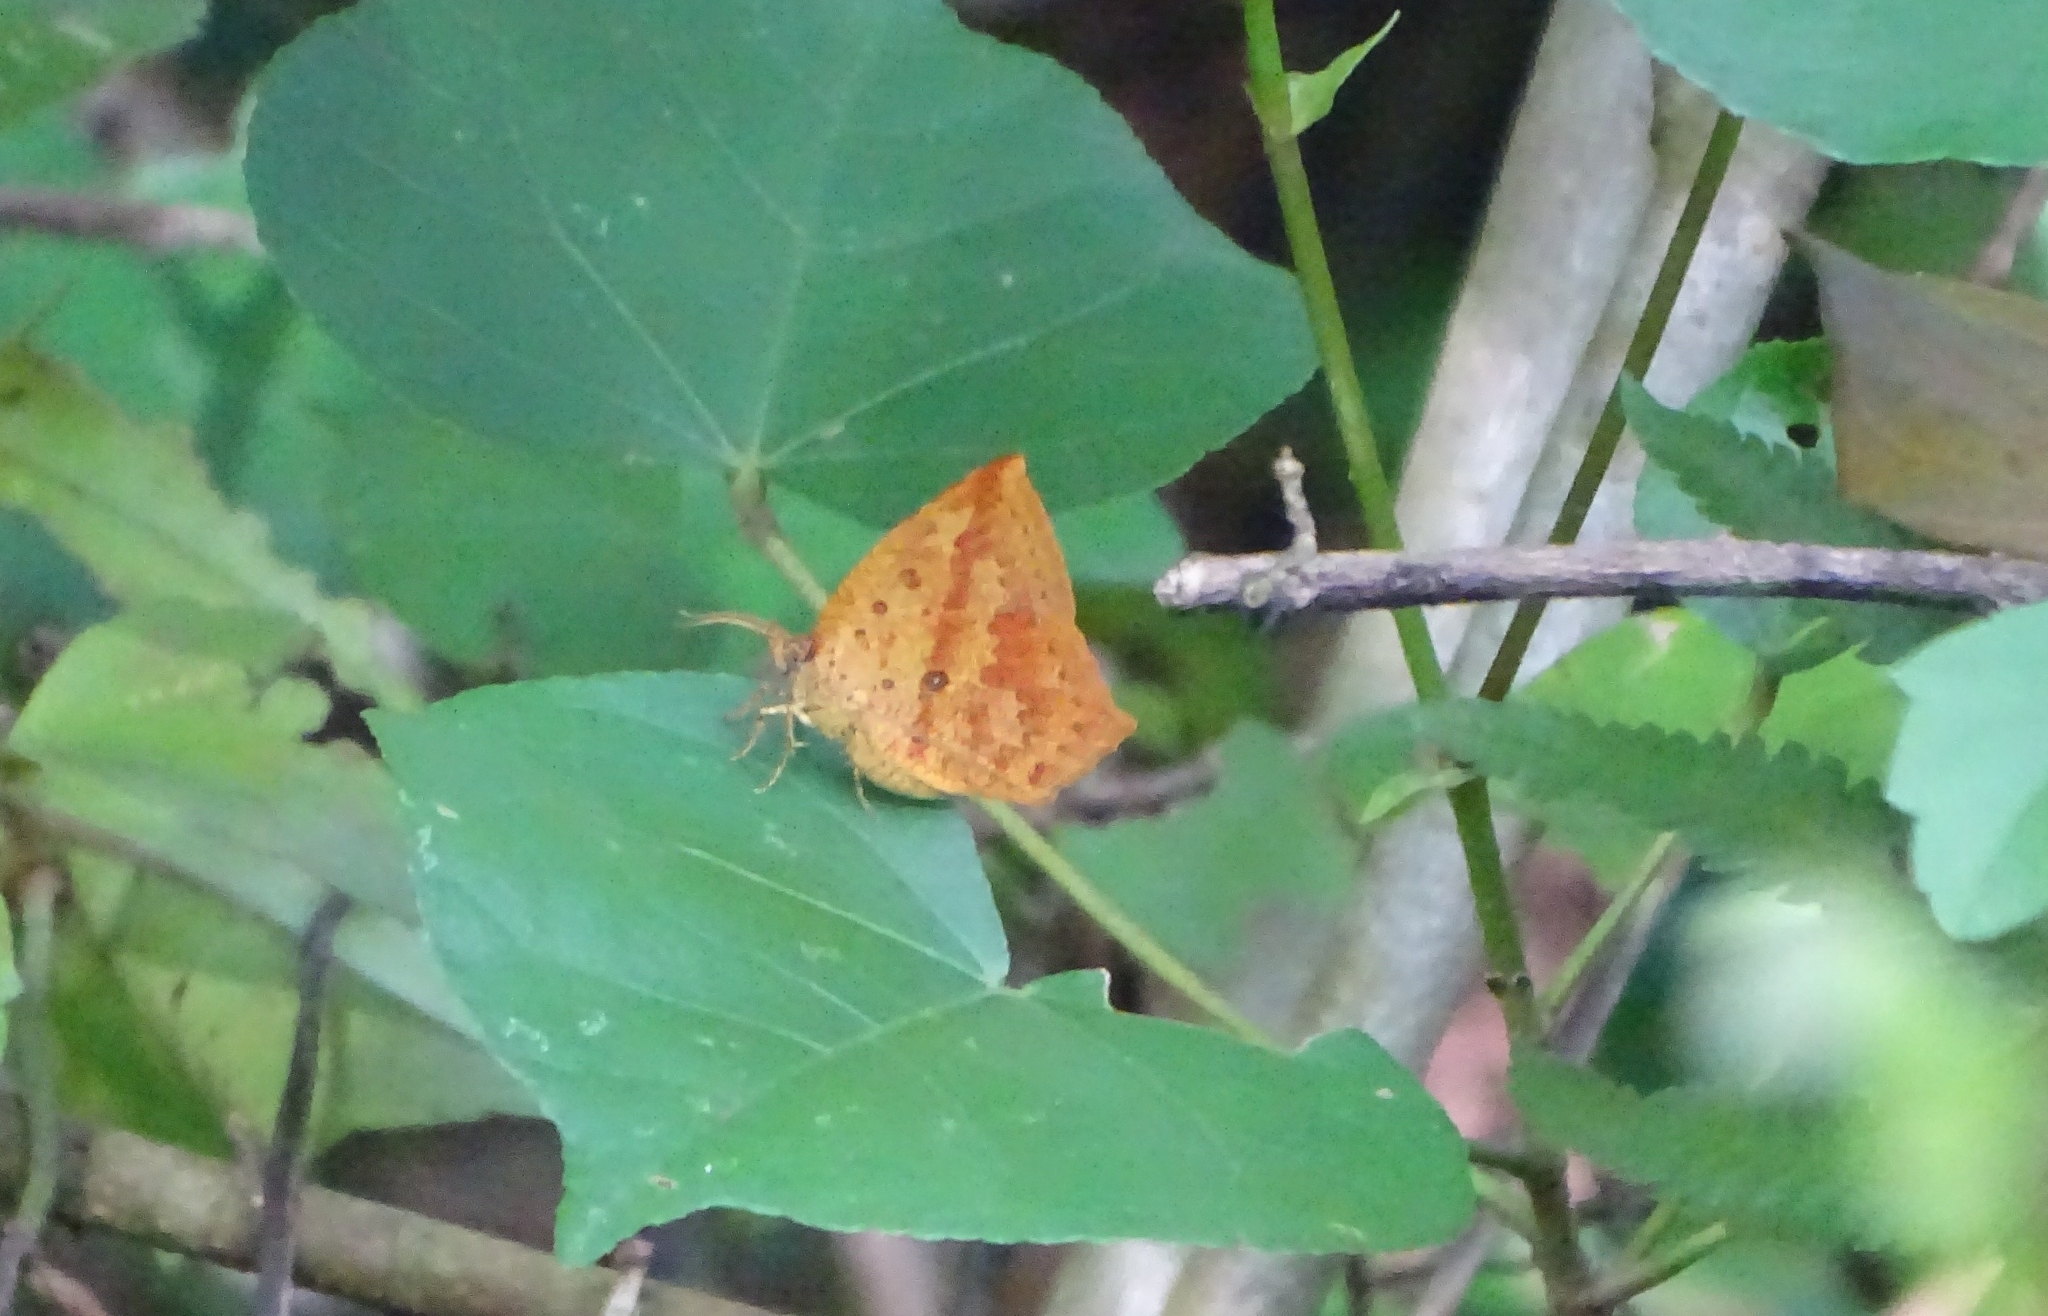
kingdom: Animalia
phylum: Arthropoda
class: Insecta
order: Lepidoptera
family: Callidulidae
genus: Tetragonus
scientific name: Tetragonus catamitus
